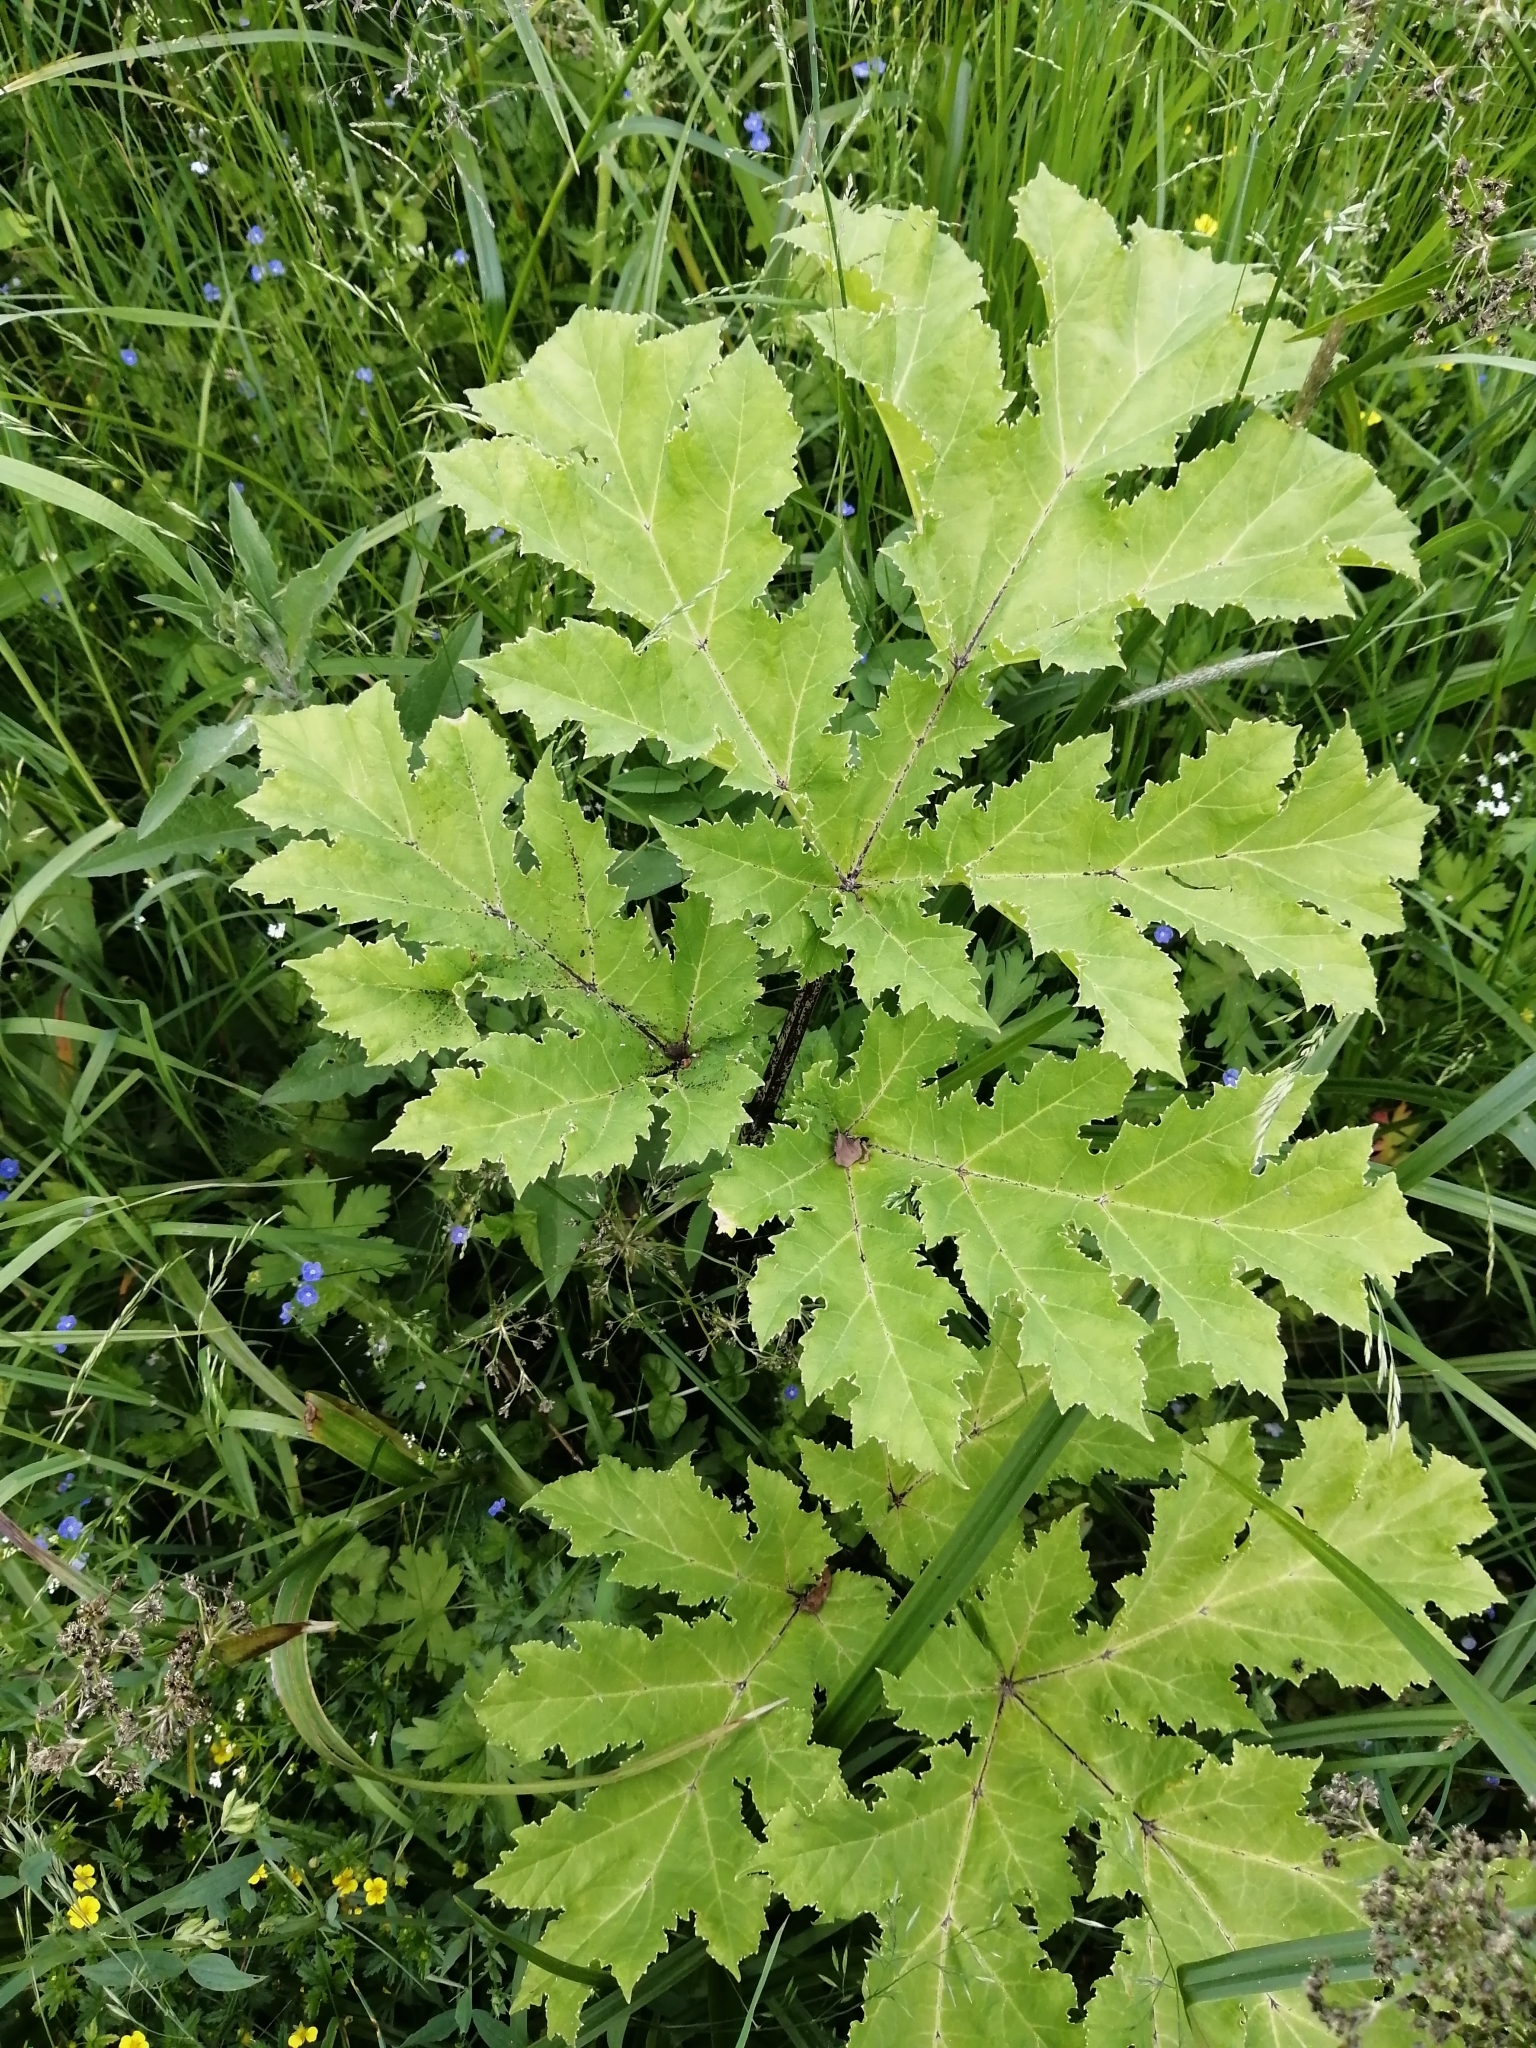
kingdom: Plantae
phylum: Tracheophyta
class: Magnoliopsida
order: Apiales
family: Apiaceae
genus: Heracleum
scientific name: Heracleum sosnowskyi
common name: Sosnowsky's hogweed
